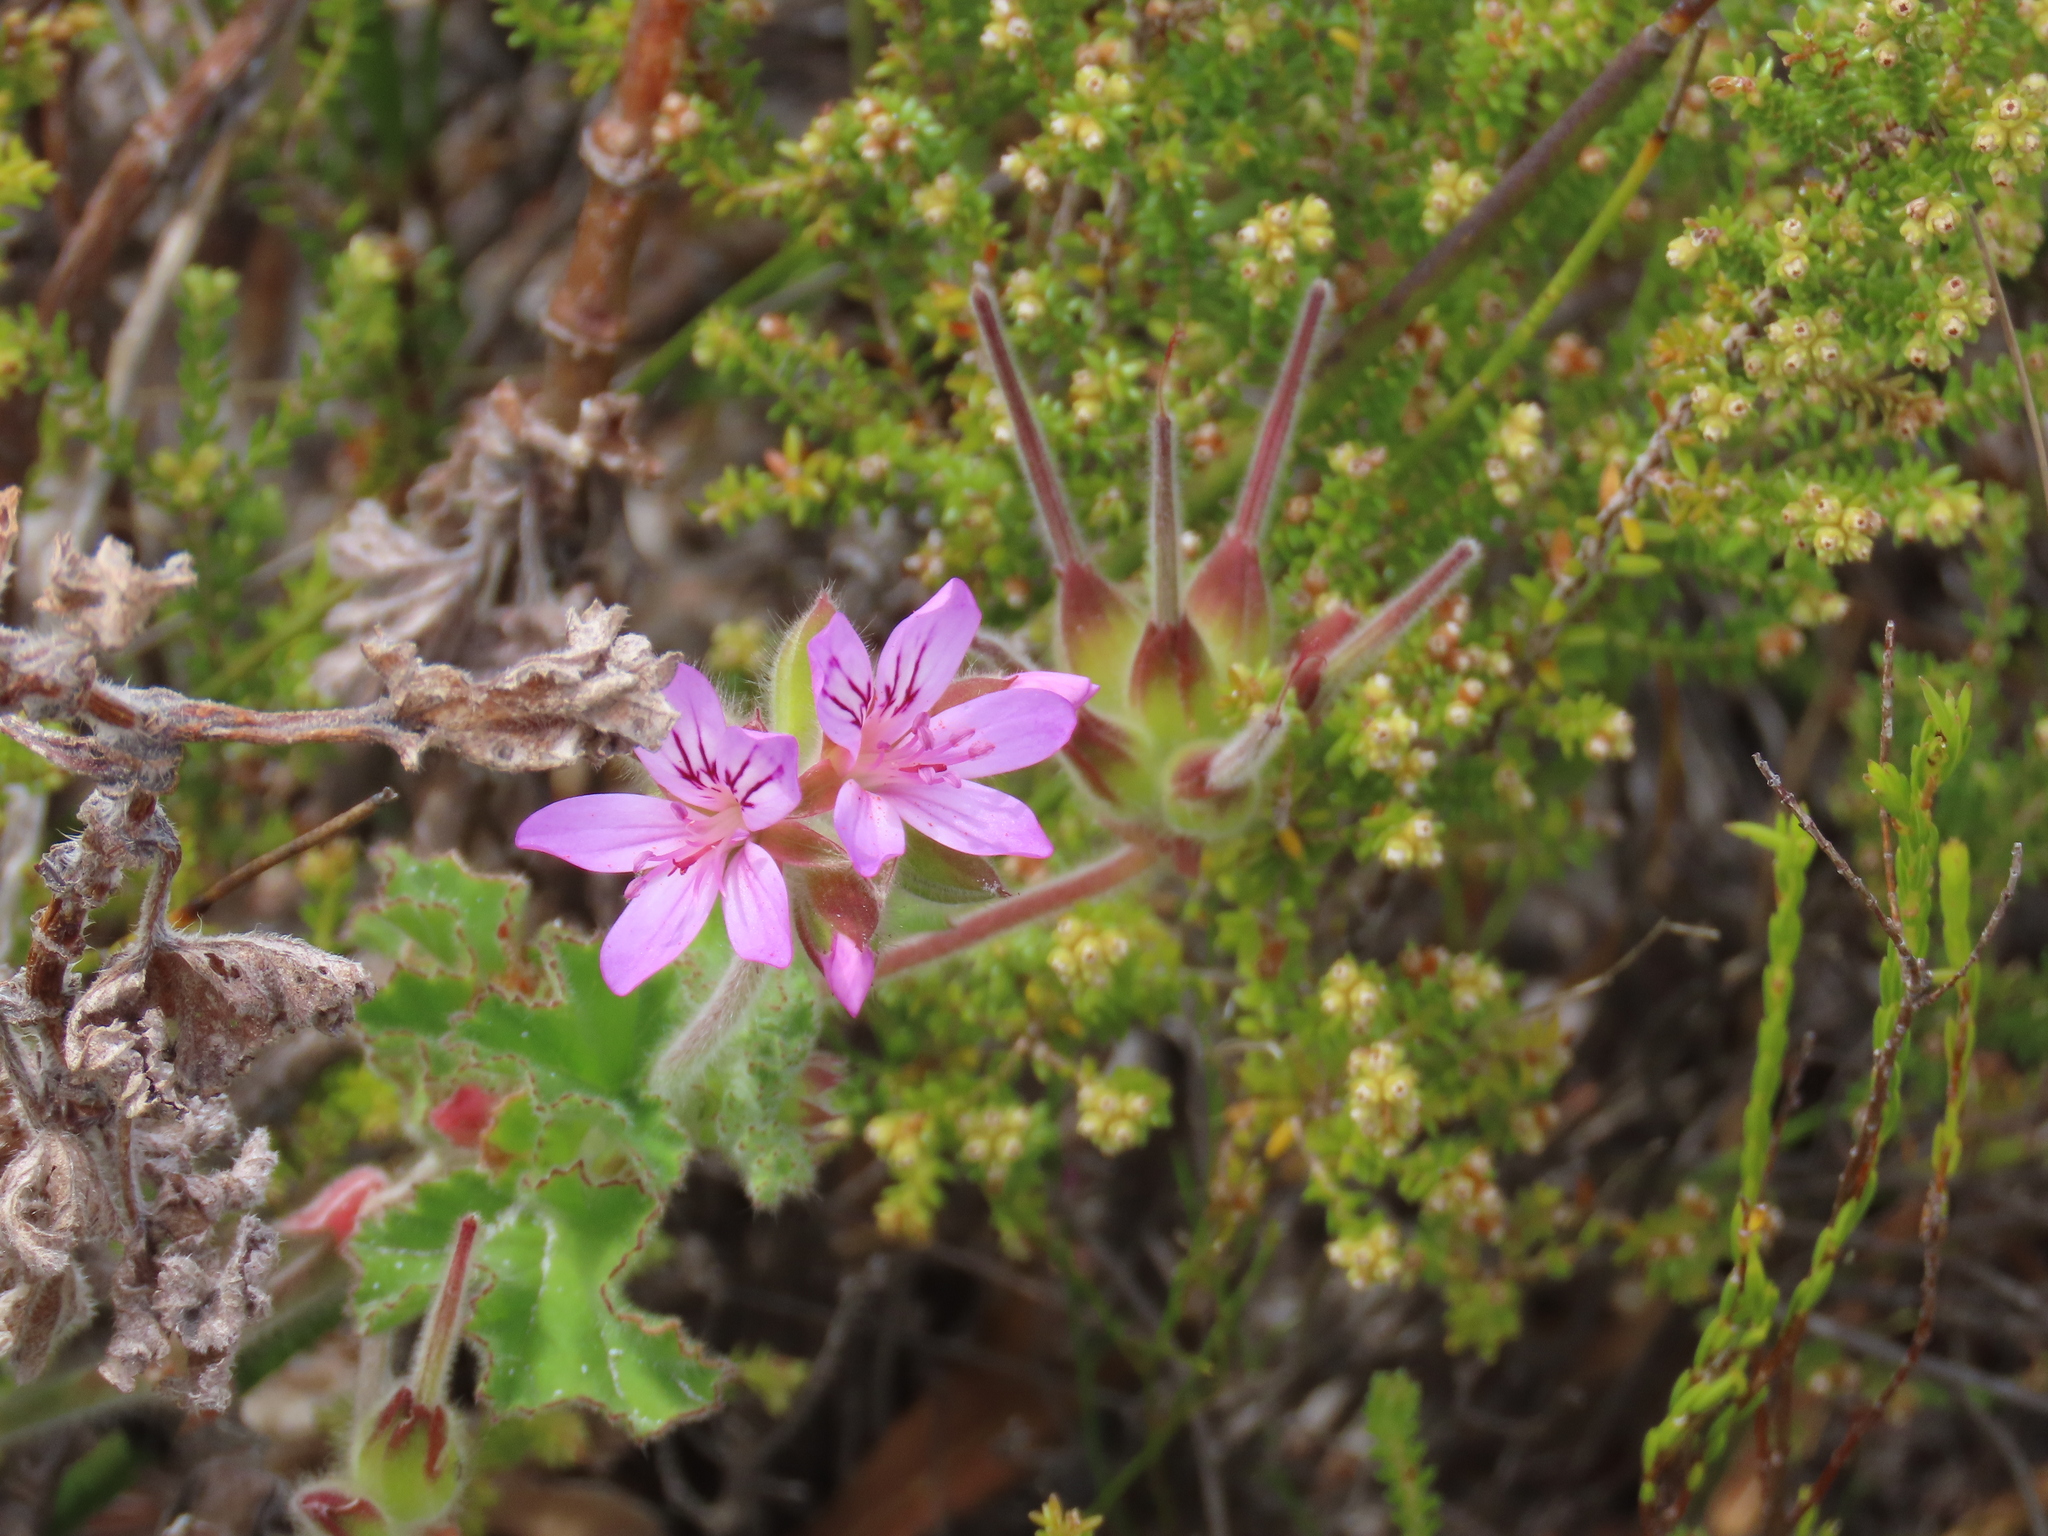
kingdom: Plantae
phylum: Tracheophyta
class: Magnoliopsida
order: Geraniales
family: Geraniaceae
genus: Pelargonium
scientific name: Pelargonium capitatum
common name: Rose scented geranium
